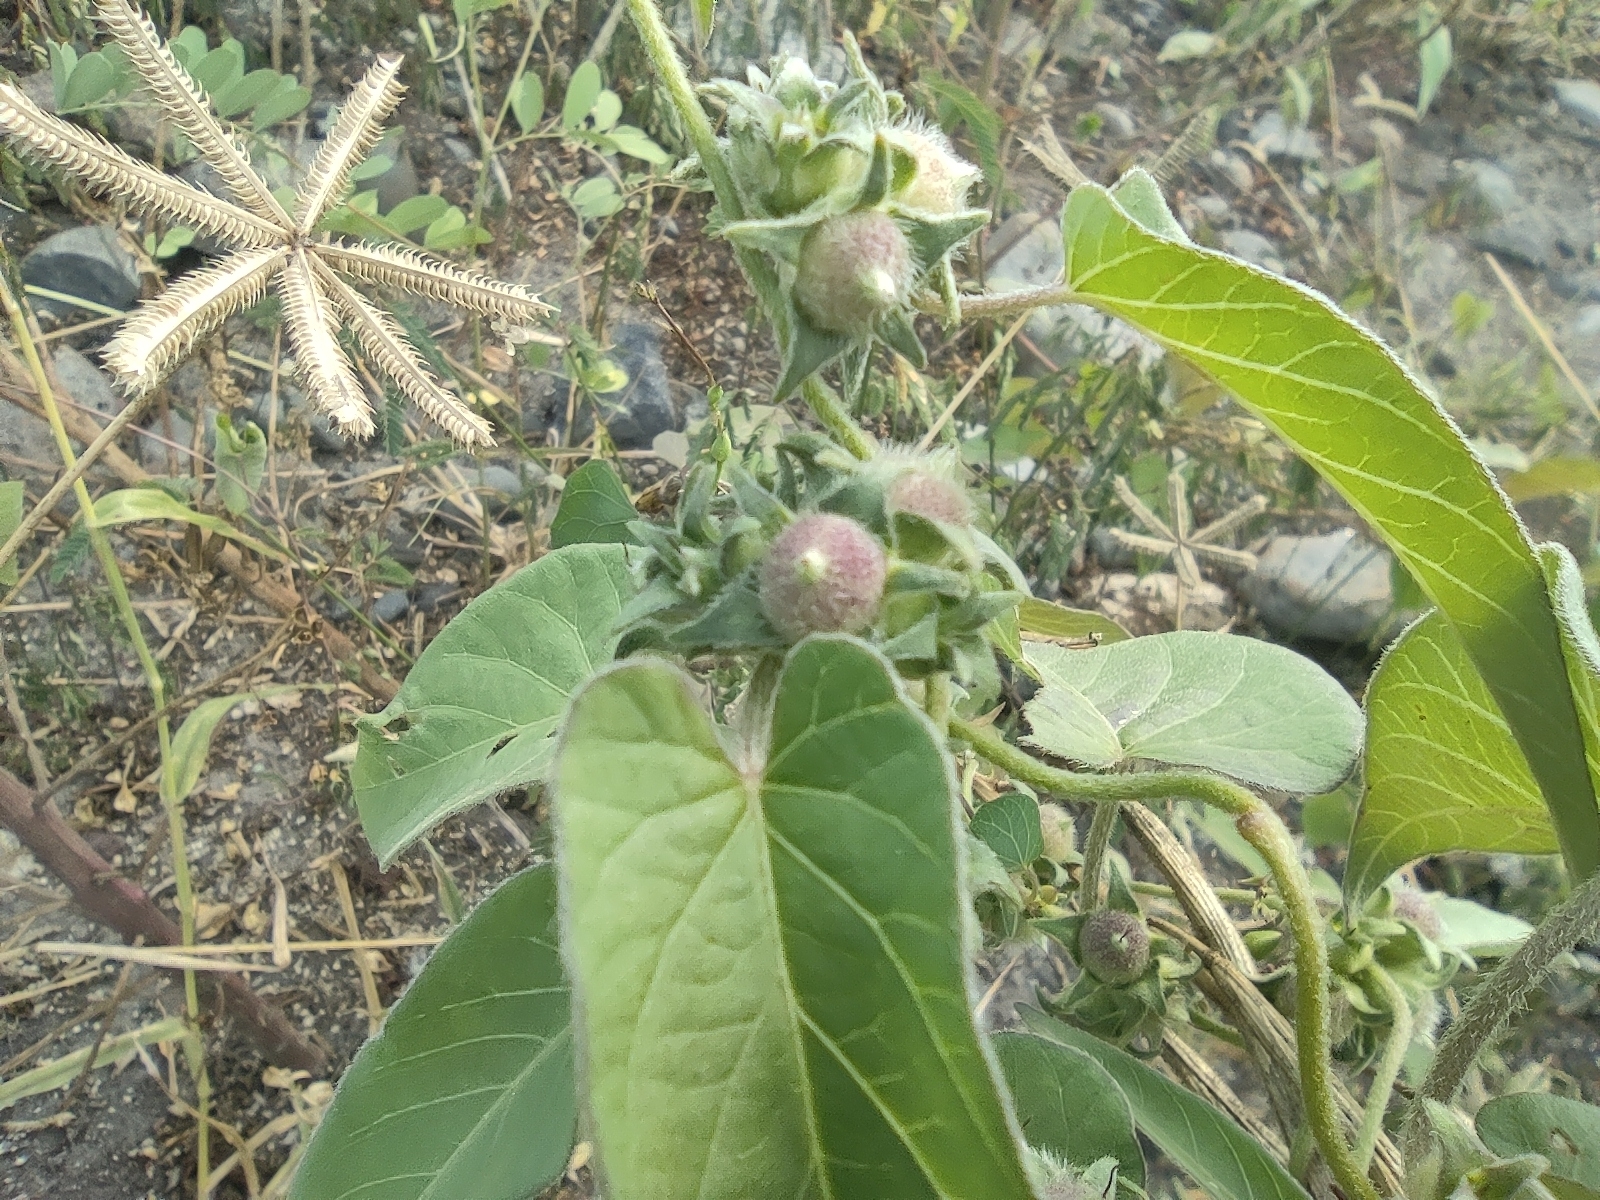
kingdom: Plantae
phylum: Tracheophyta
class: Magnoliopsida
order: Solanales
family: Convolvulaceae
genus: Ipomoea
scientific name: Ipomoea eriocarpa
